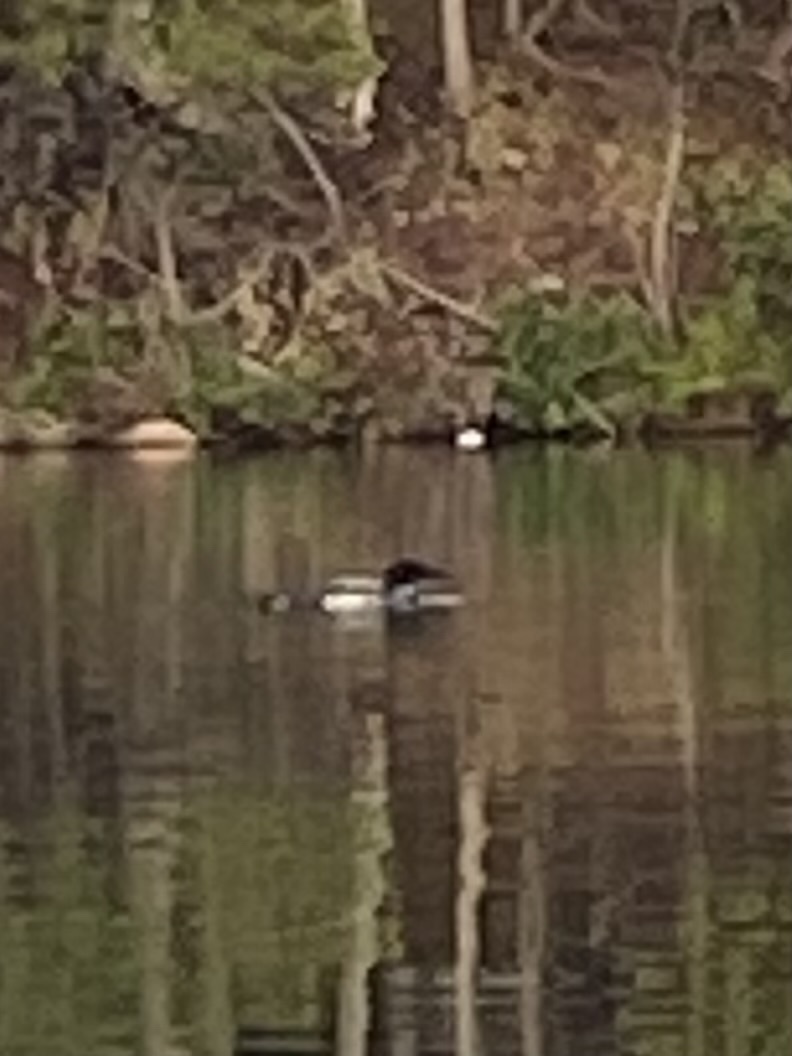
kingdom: Animalia
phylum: Chordata
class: Aves
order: Gaviiformes
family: Gaviidae
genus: Gavia
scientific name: Gavia immer
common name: Common loon
